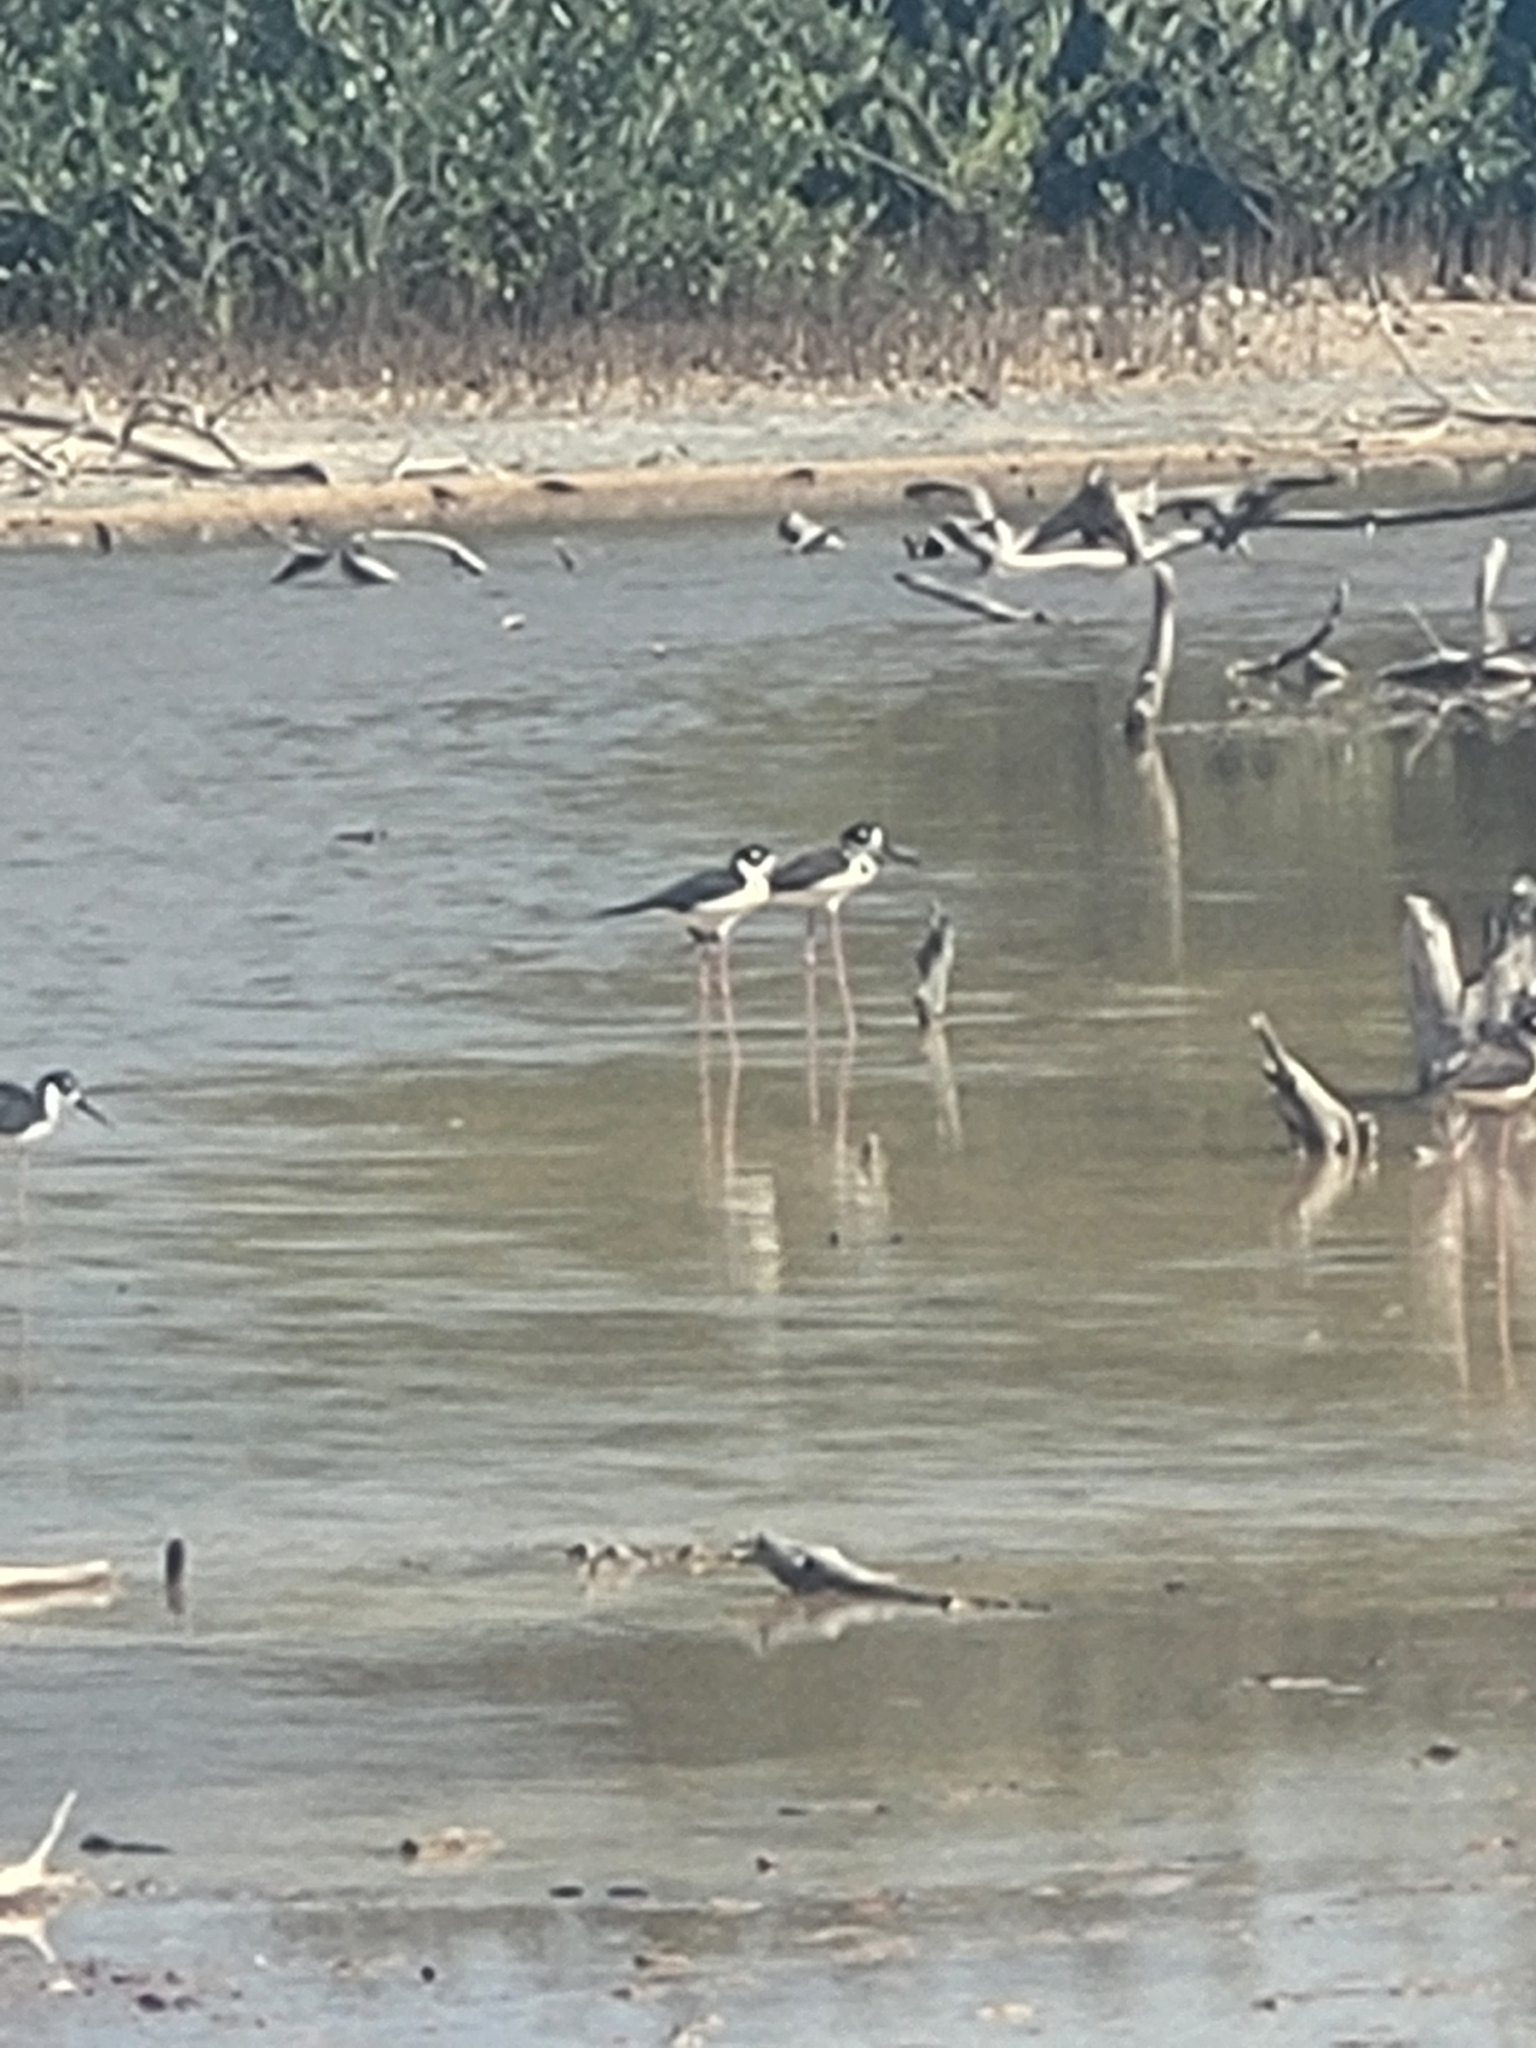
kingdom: Animalia
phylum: Chordata
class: Aves
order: Charadriiformes
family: Recurvirostridae
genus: Himantopus
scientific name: Himantopus mexicanus
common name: Black-necked stilt
